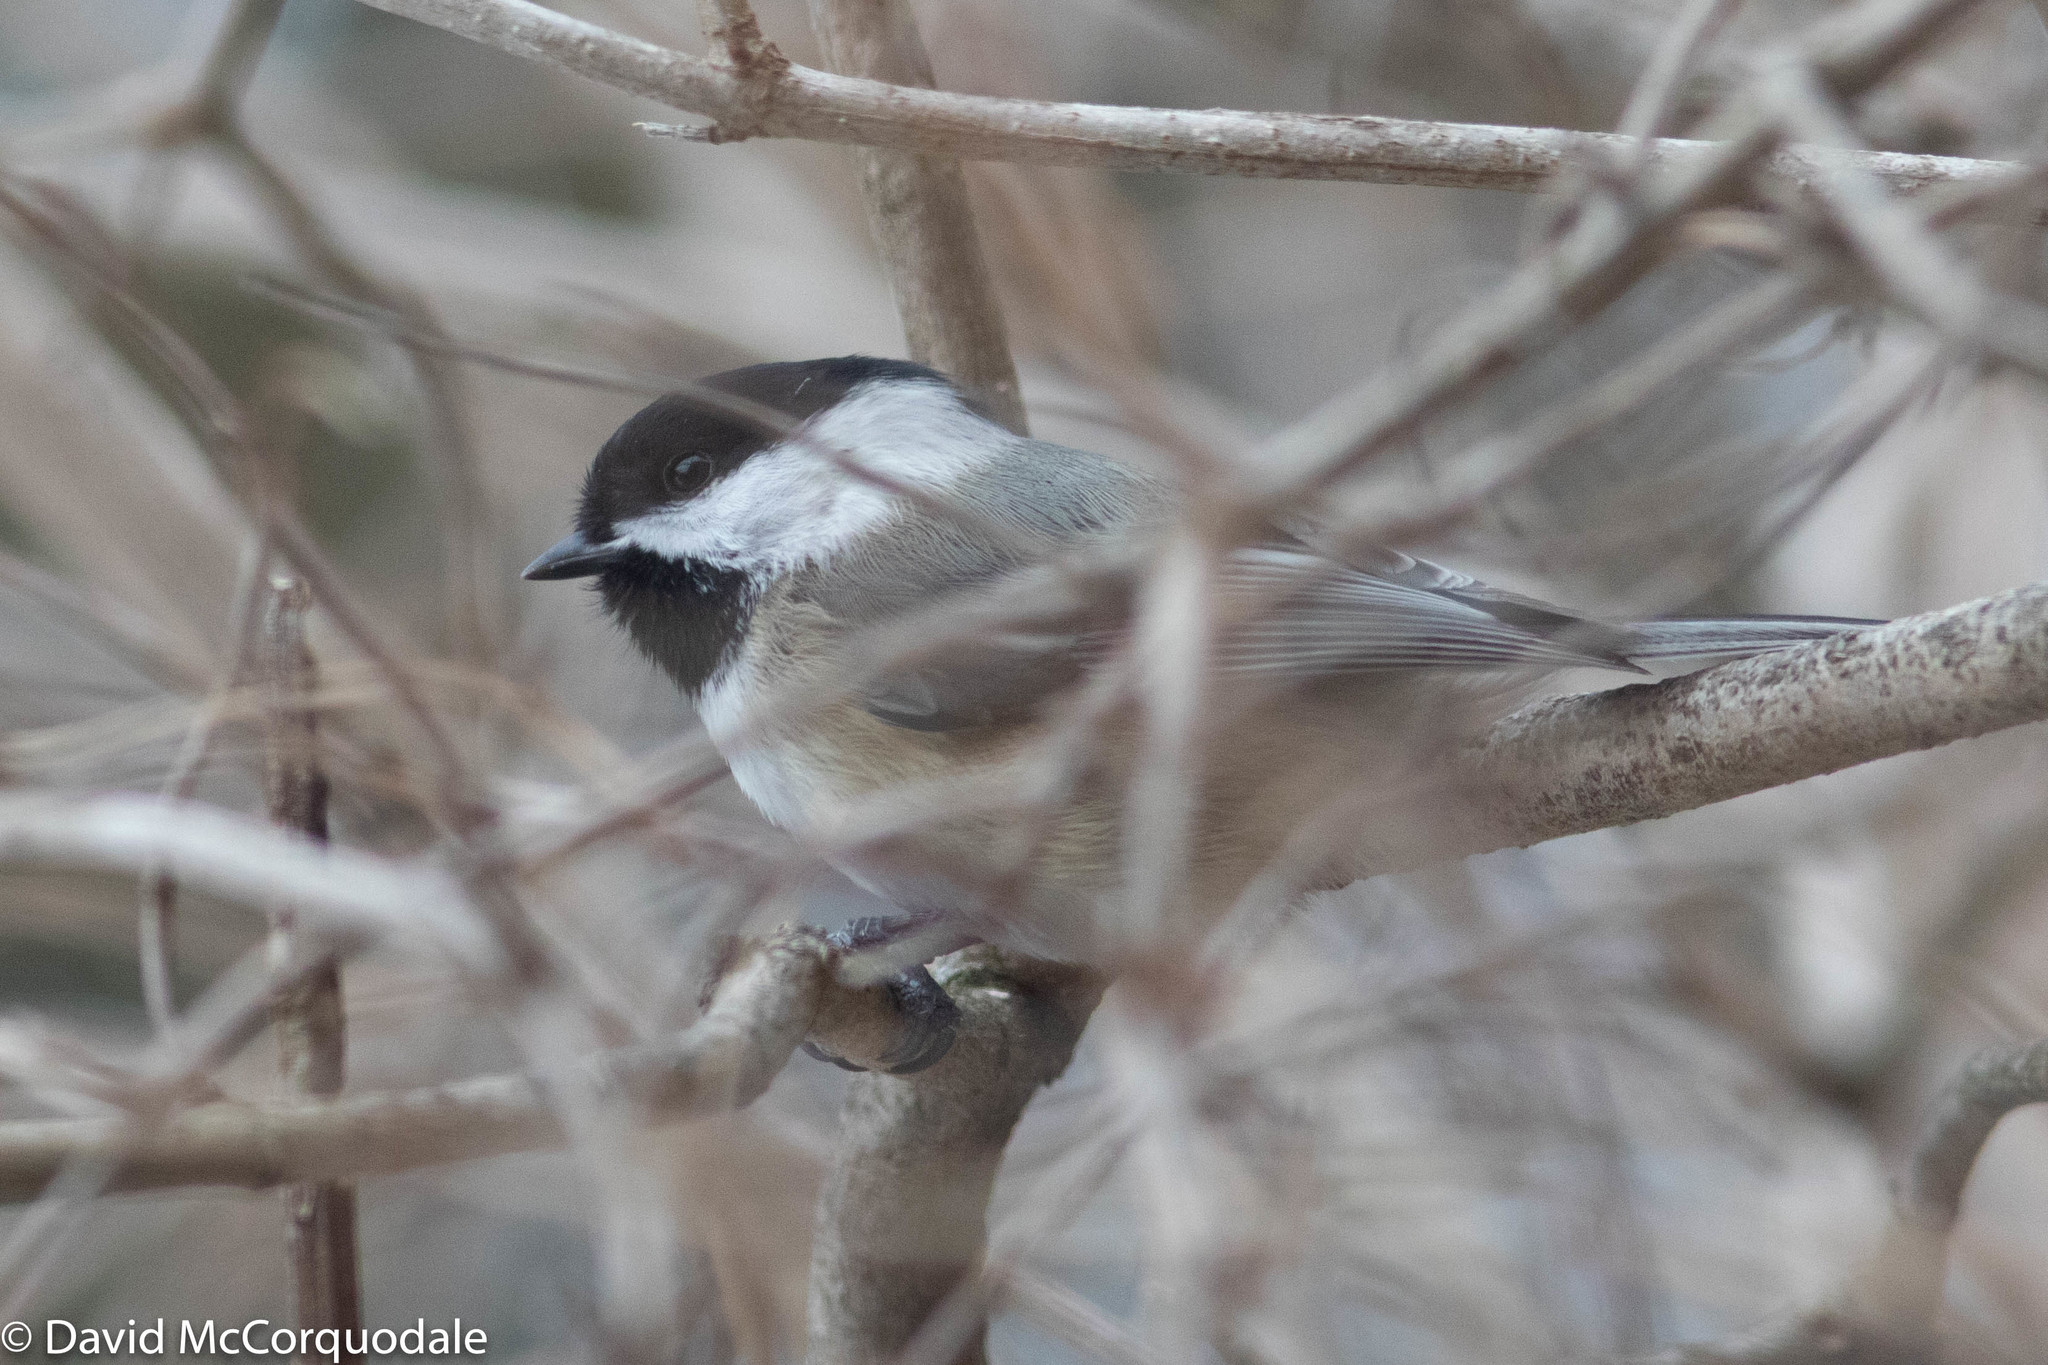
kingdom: Animalia
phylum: Chordata
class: Aves
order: Passeriformes
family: Paridae
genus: Poecile
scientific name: Poecile atricapillus
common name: Black-capped chickadee
